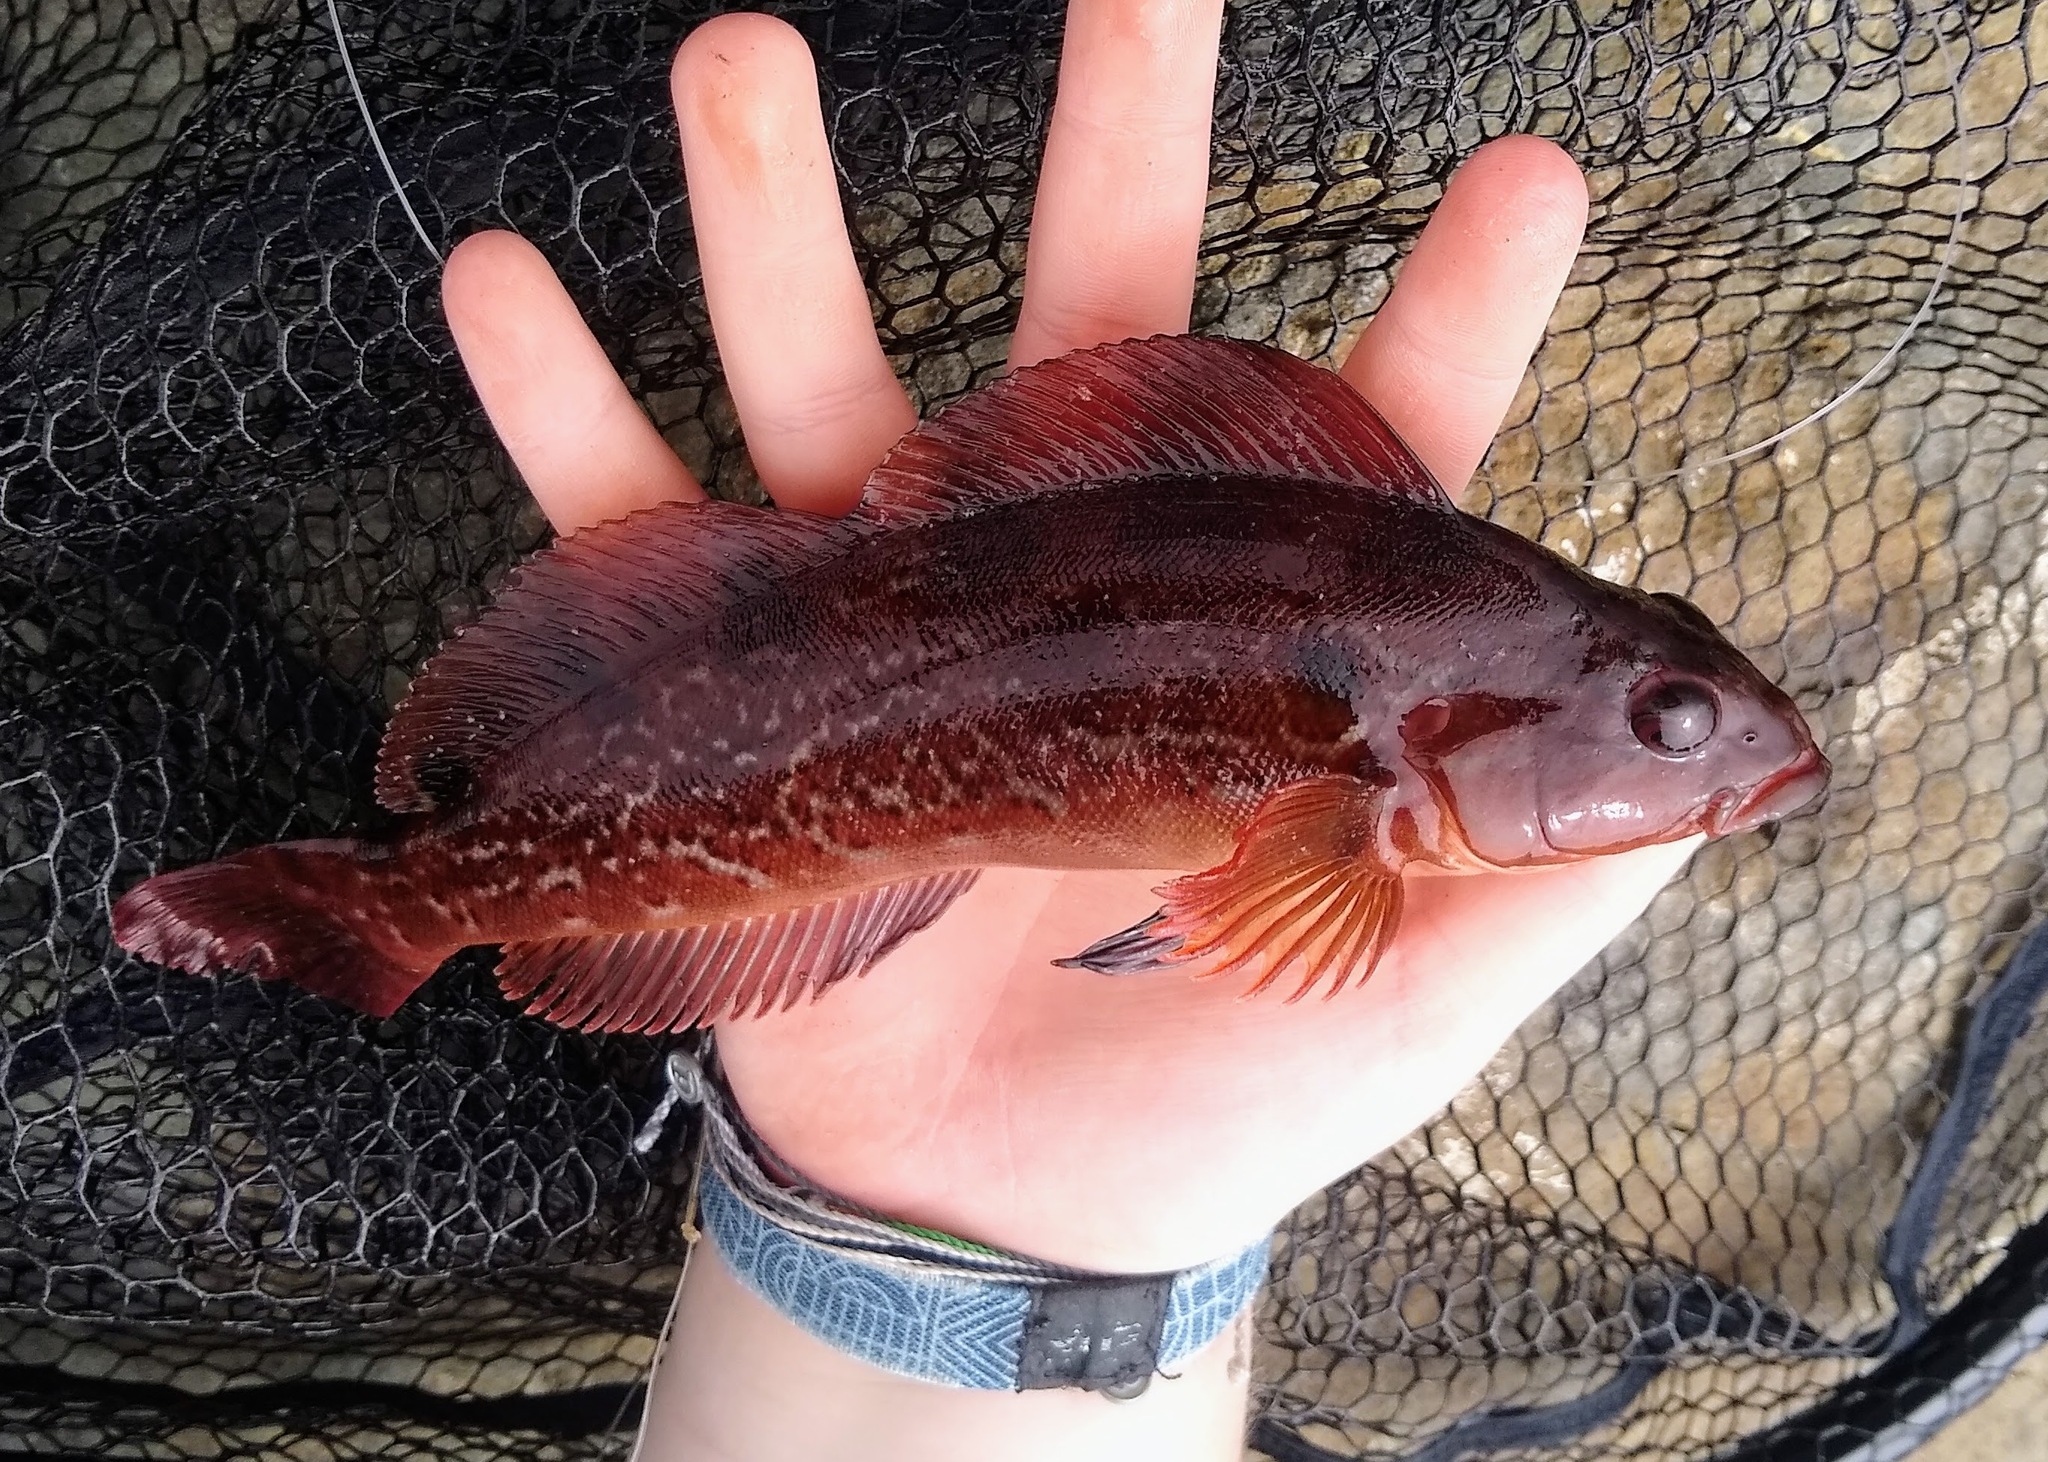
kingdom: Animalia
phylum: Chordata
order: Scorpaeniformes
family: Hexagrammidae
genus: Hexagrammos
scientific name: Hexagrammos lagocephalus
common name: Rock greenling
